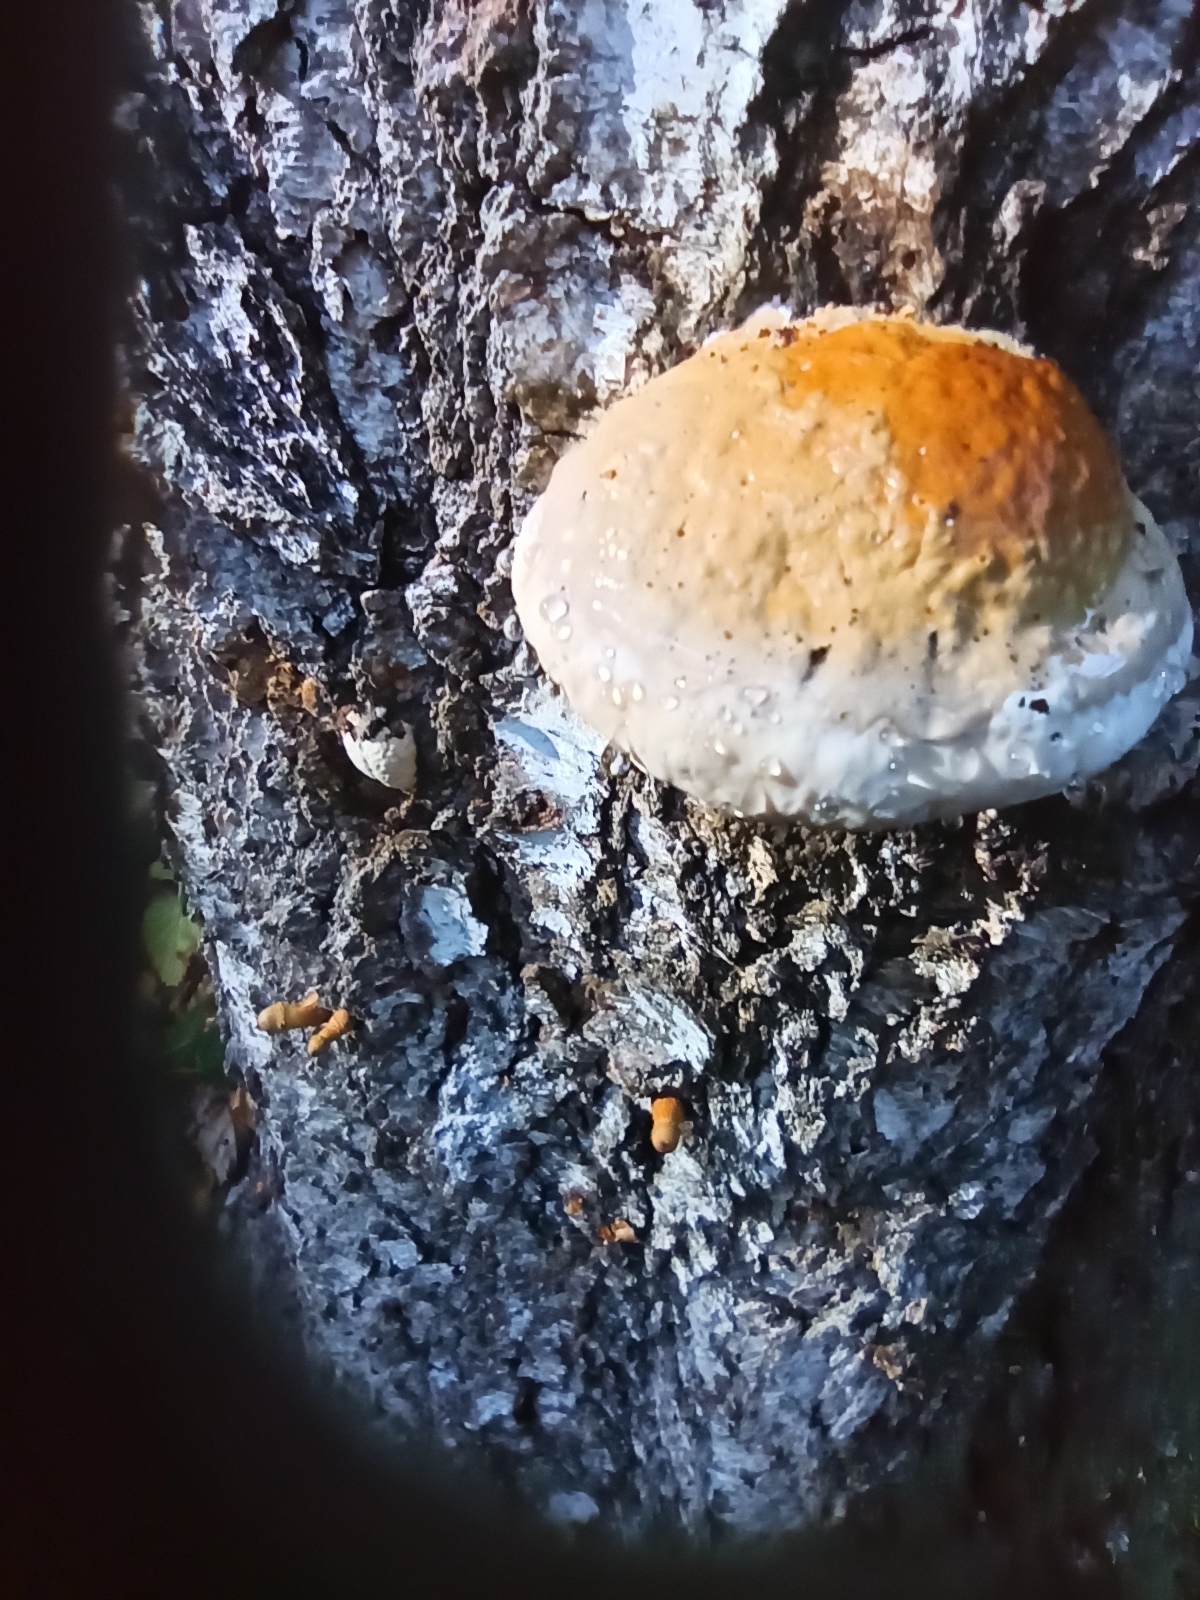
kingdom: Fungi
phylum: Basidiomycota
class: Agaricomycetes
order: Polyporales
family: Fomitopsidaceae
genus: Fomitopsis
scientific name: Fomitopsis pinicola
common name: Red-belted bracket
